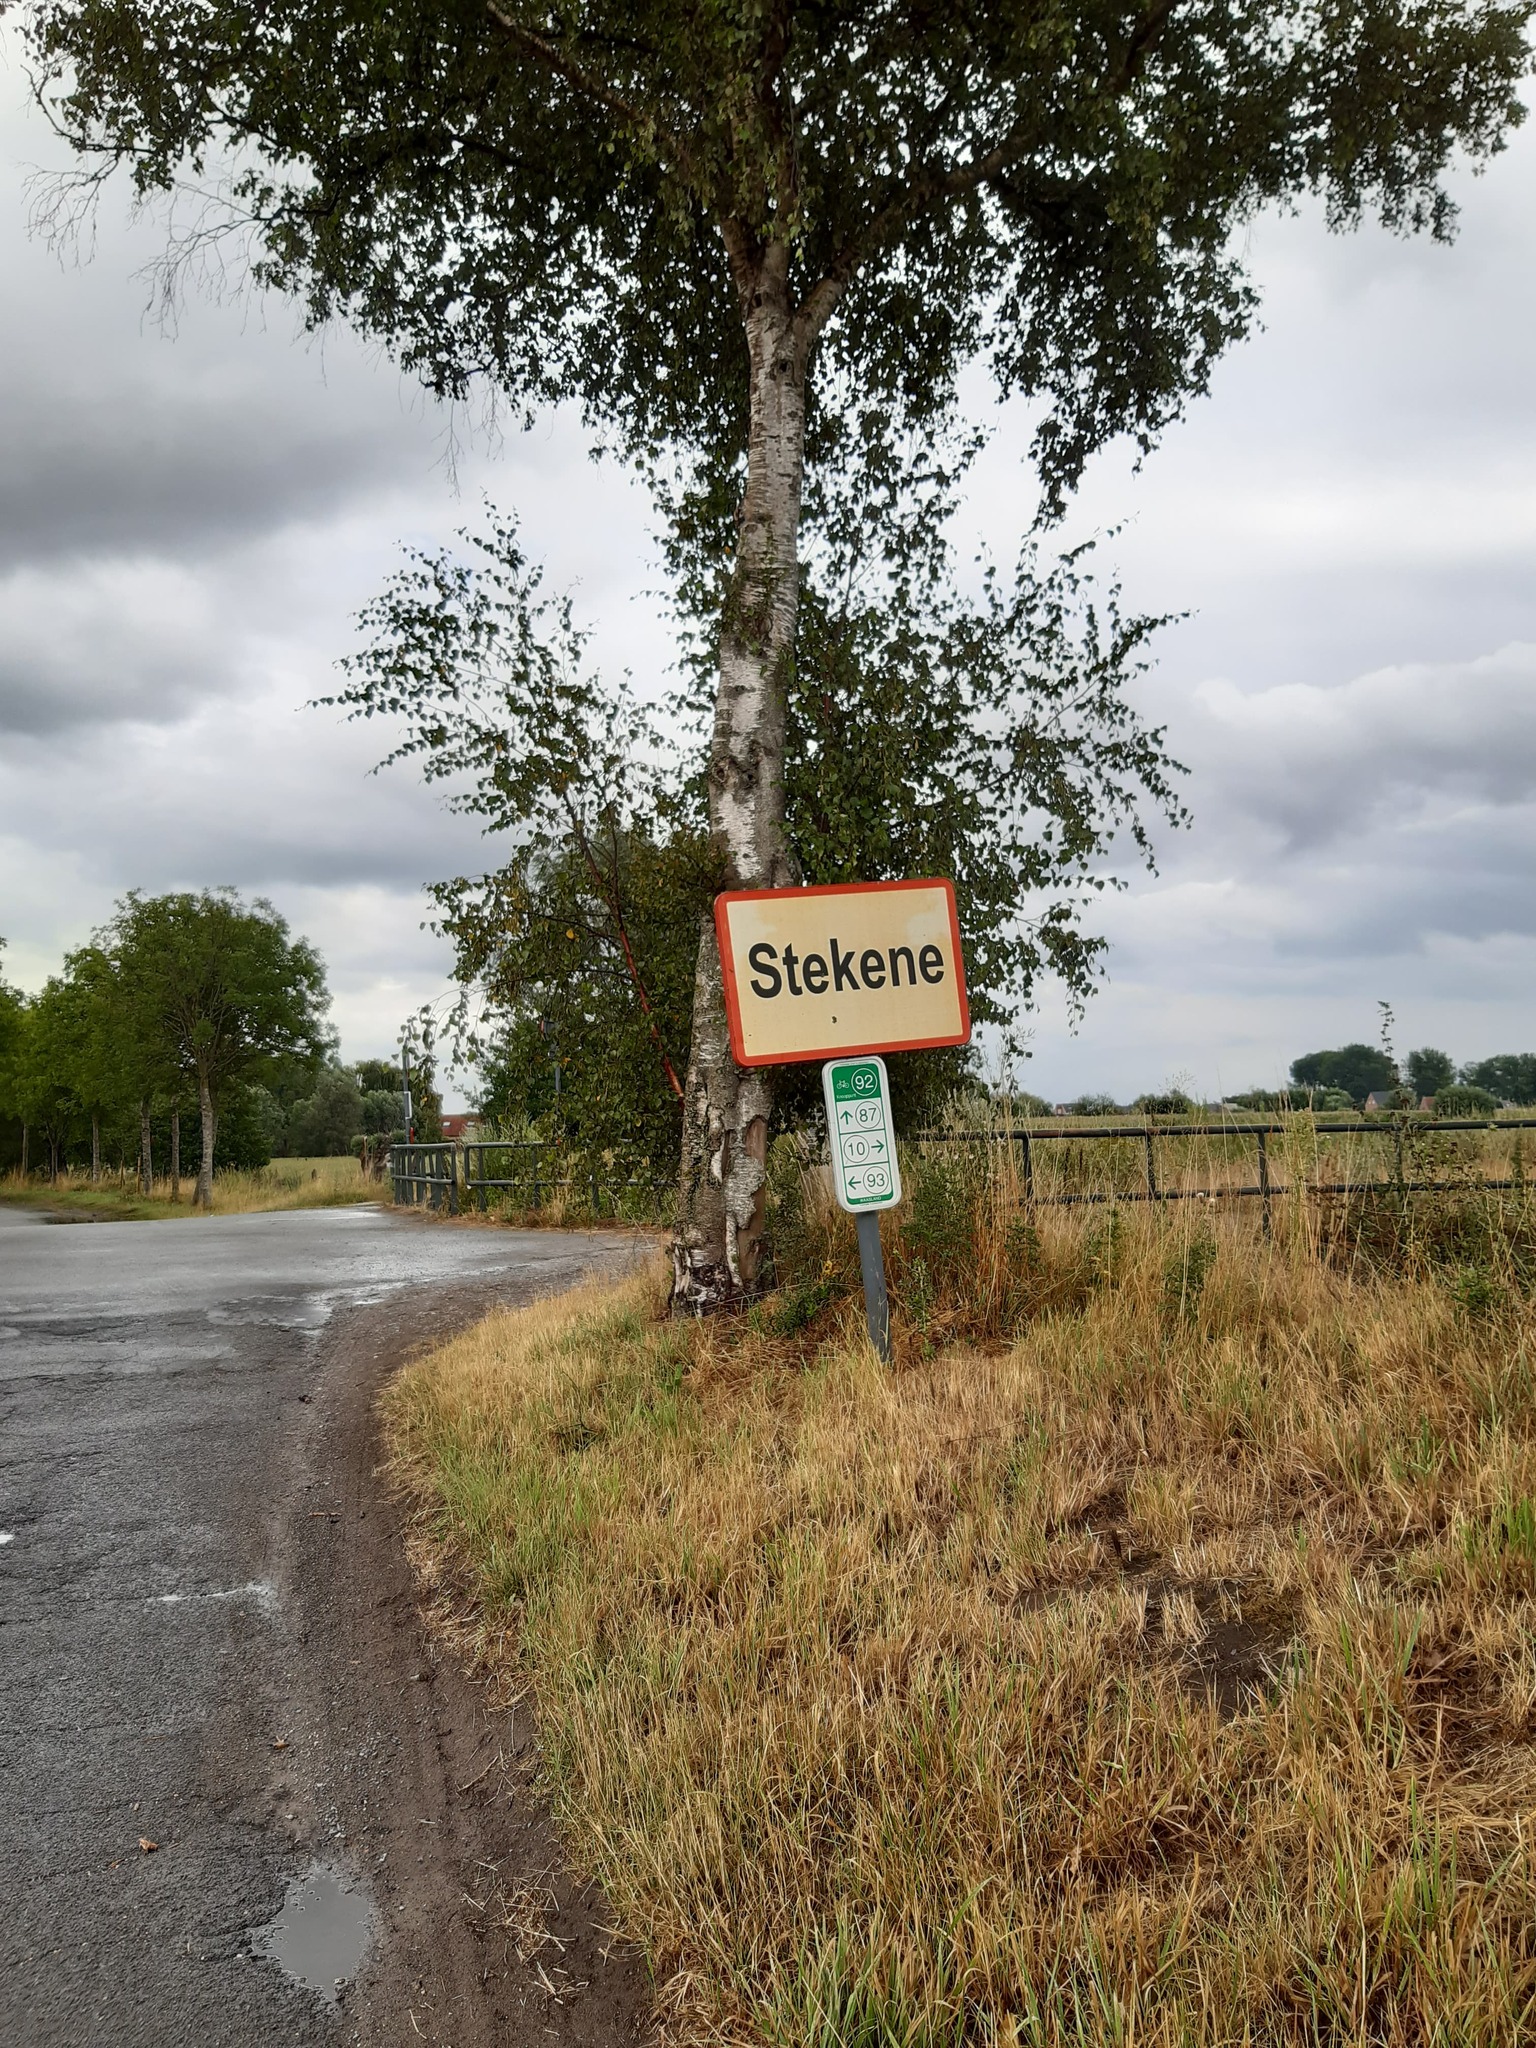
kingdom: Animalia
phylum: Arthropoda
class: Insecta
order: Hymenoptera
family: Vespidae
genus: Vespa
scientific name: Vespa crabro
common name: Hornet
